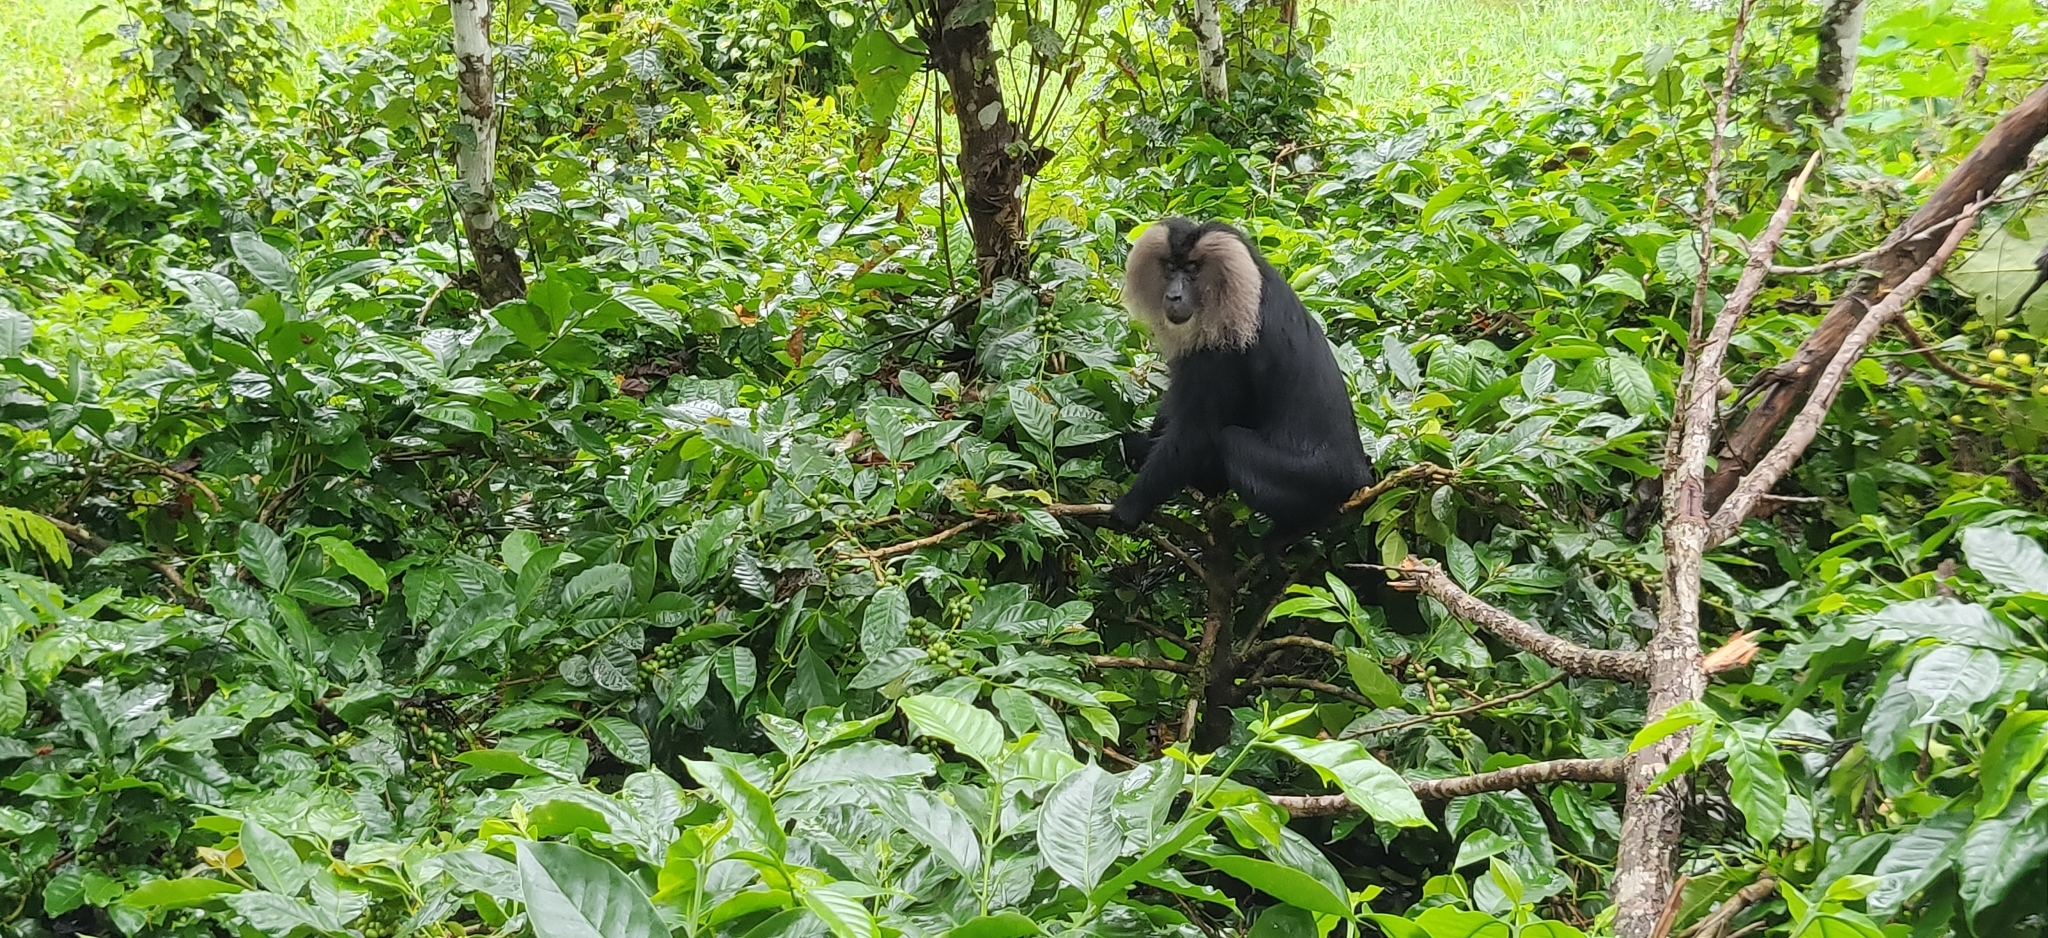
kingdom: Animalia
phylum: Chordata
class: Mammalia
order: Primates
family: Cercopithecidae
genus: Macaca
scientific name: Macaca silenus
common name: Lion-tailed macaque
